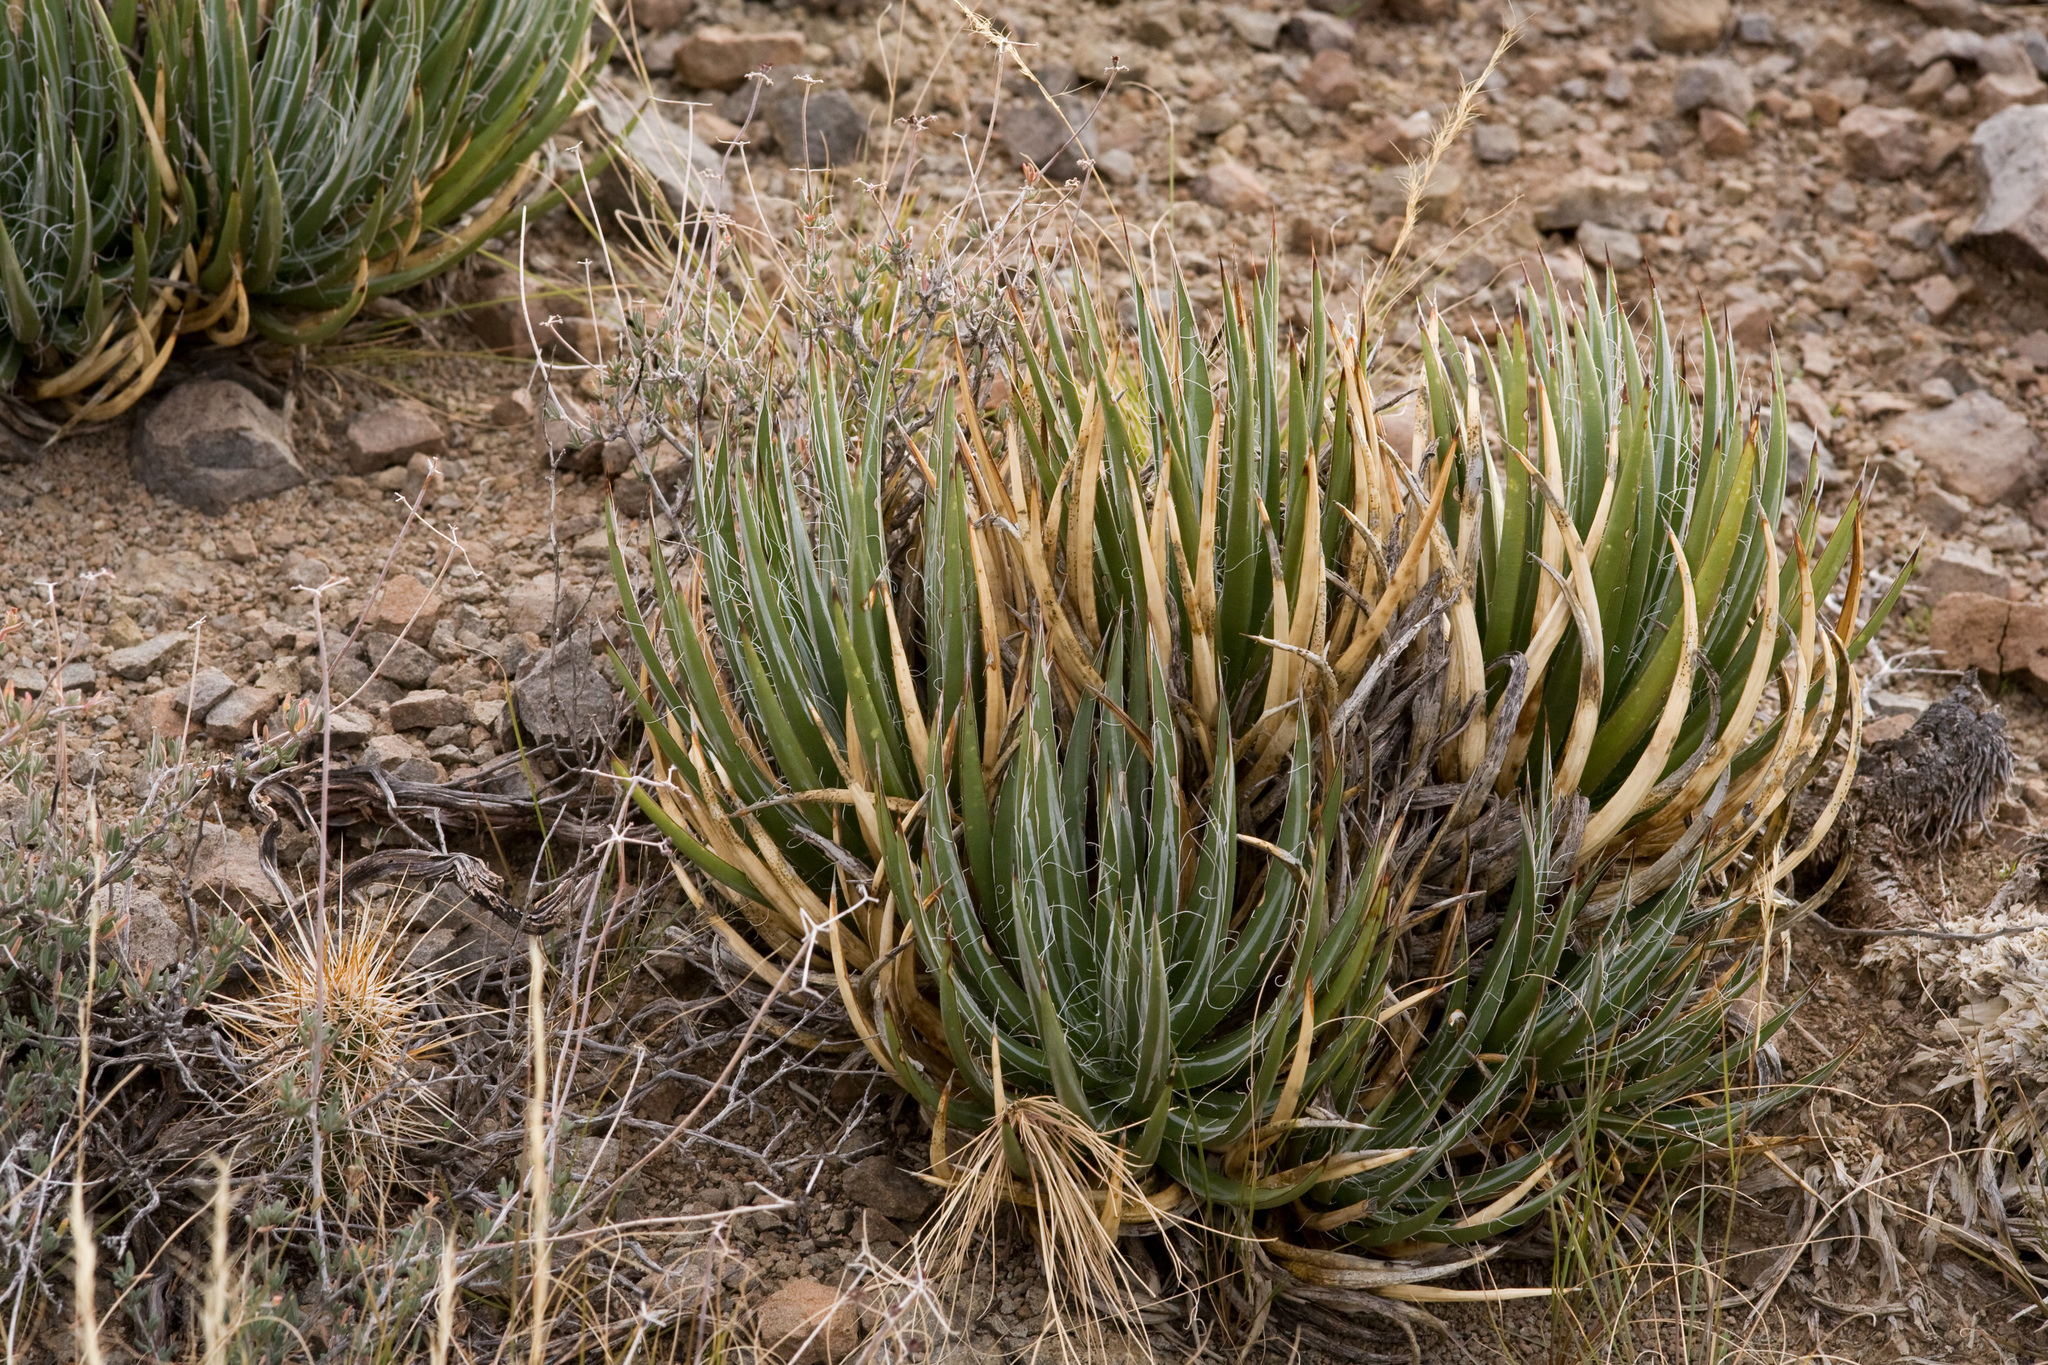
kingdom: Plantae
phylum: Tracheophyta
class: Liliopsida
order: Asparagales
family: Asparagaceae
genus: Agave
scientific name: Agave toumeyana
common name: Toumey's agave
